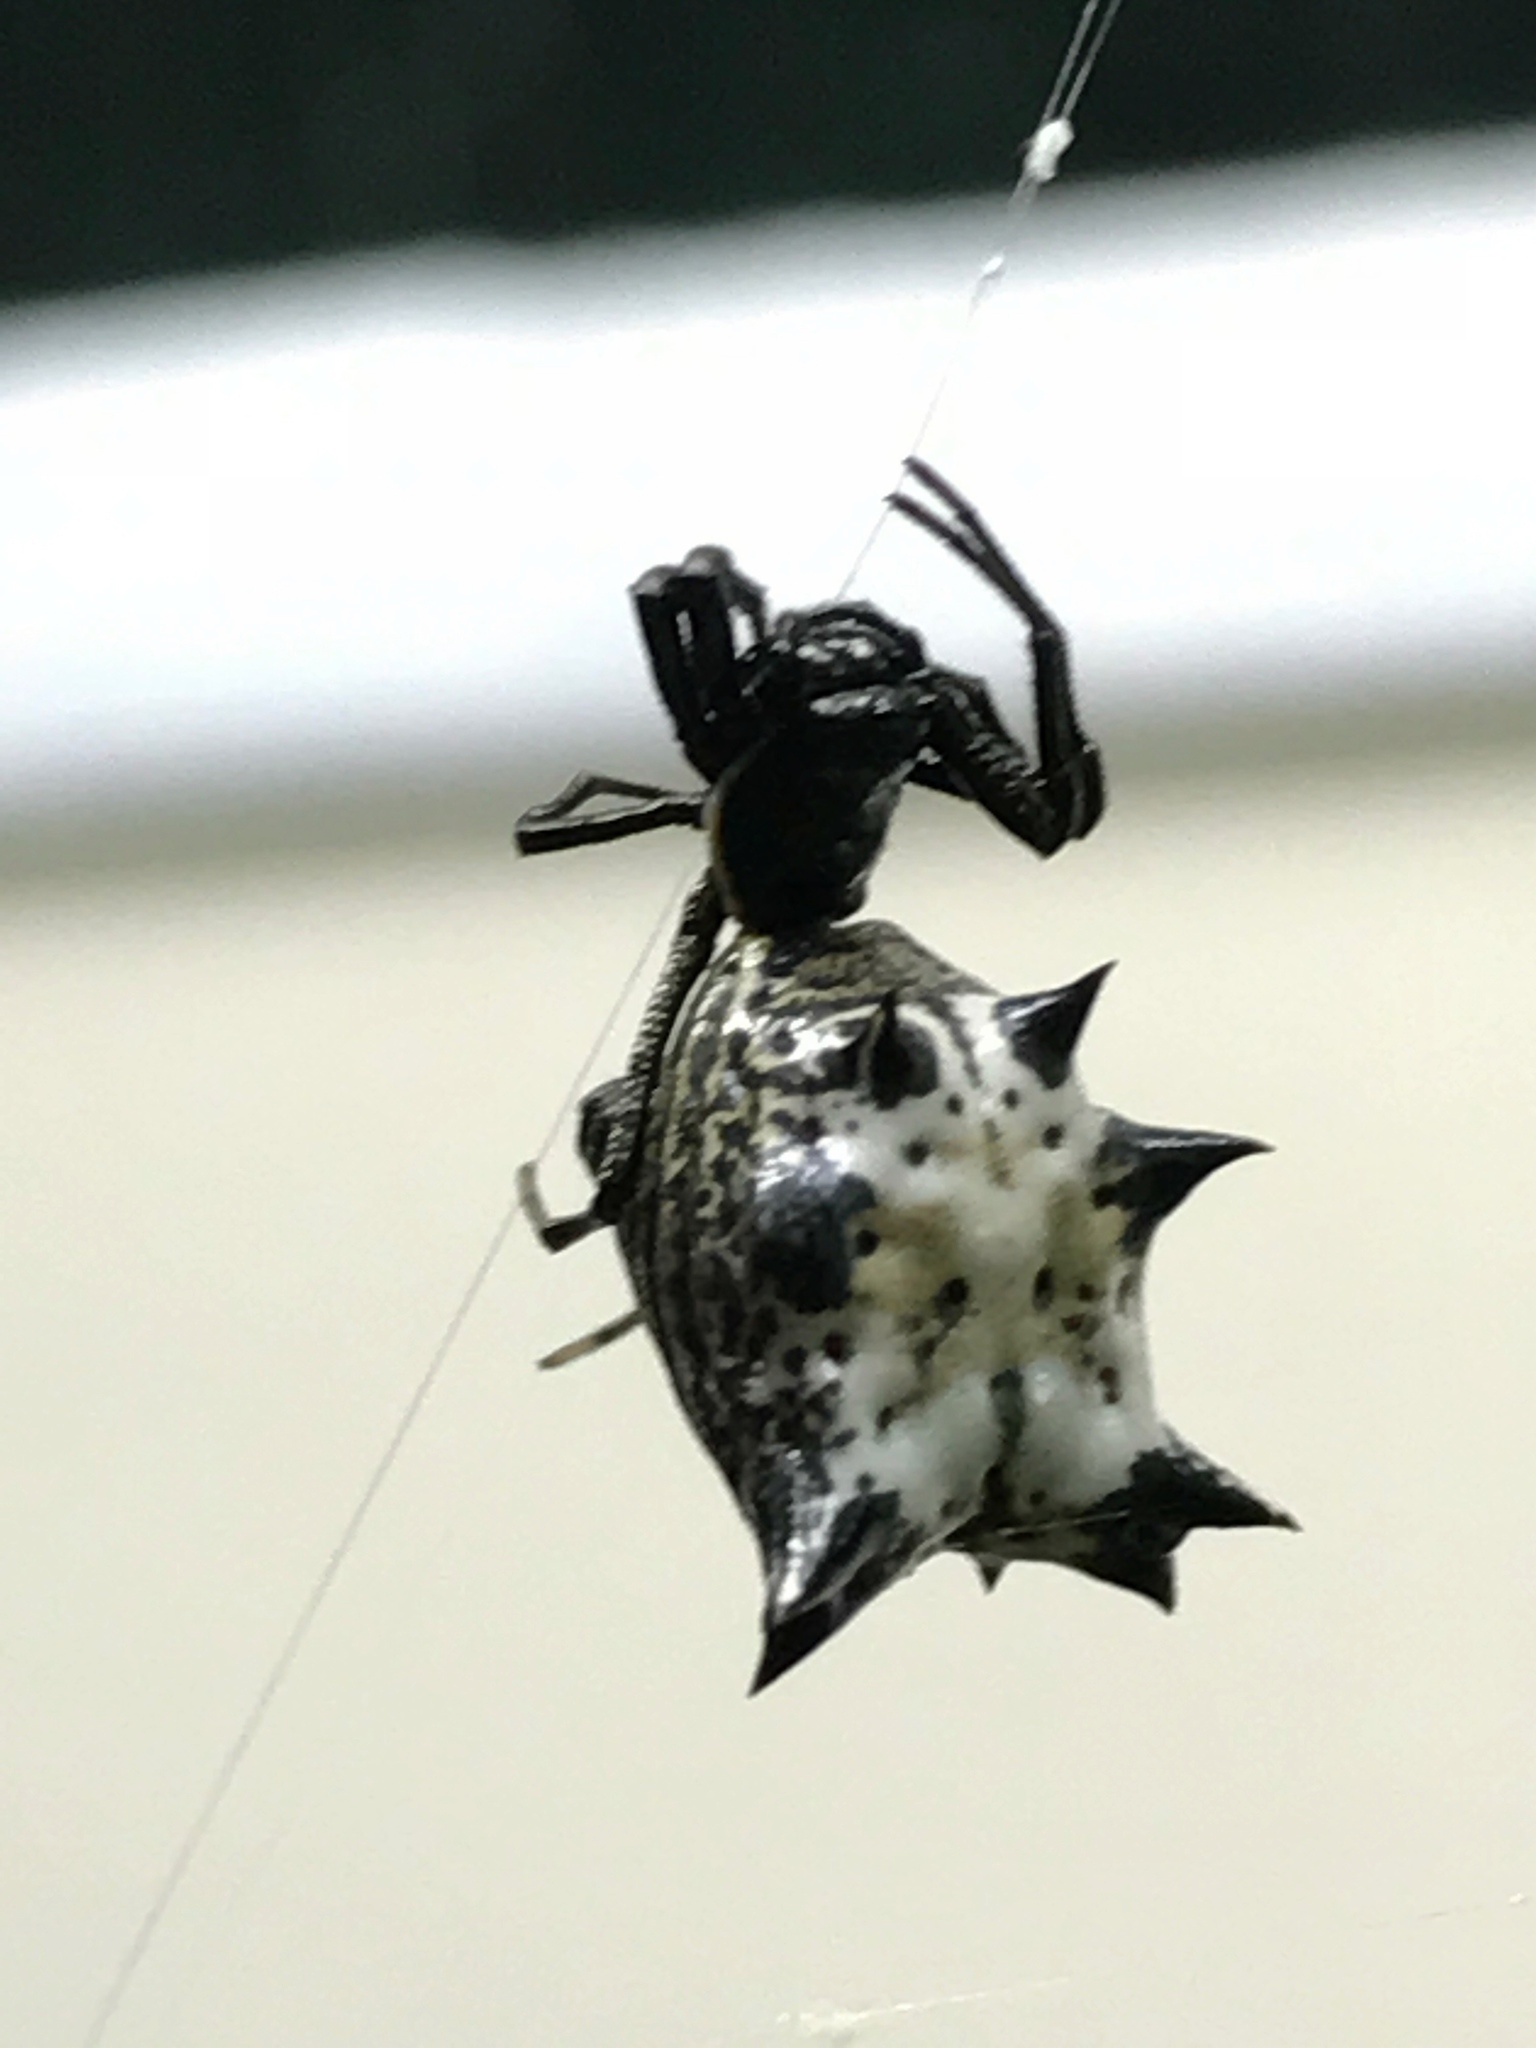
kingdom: Animalia
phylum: Arthropoda
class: Arachnida
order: Araneae
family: Araneidae
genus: Micrathena
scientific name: Micrathena gracilis
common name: Orb weavers
